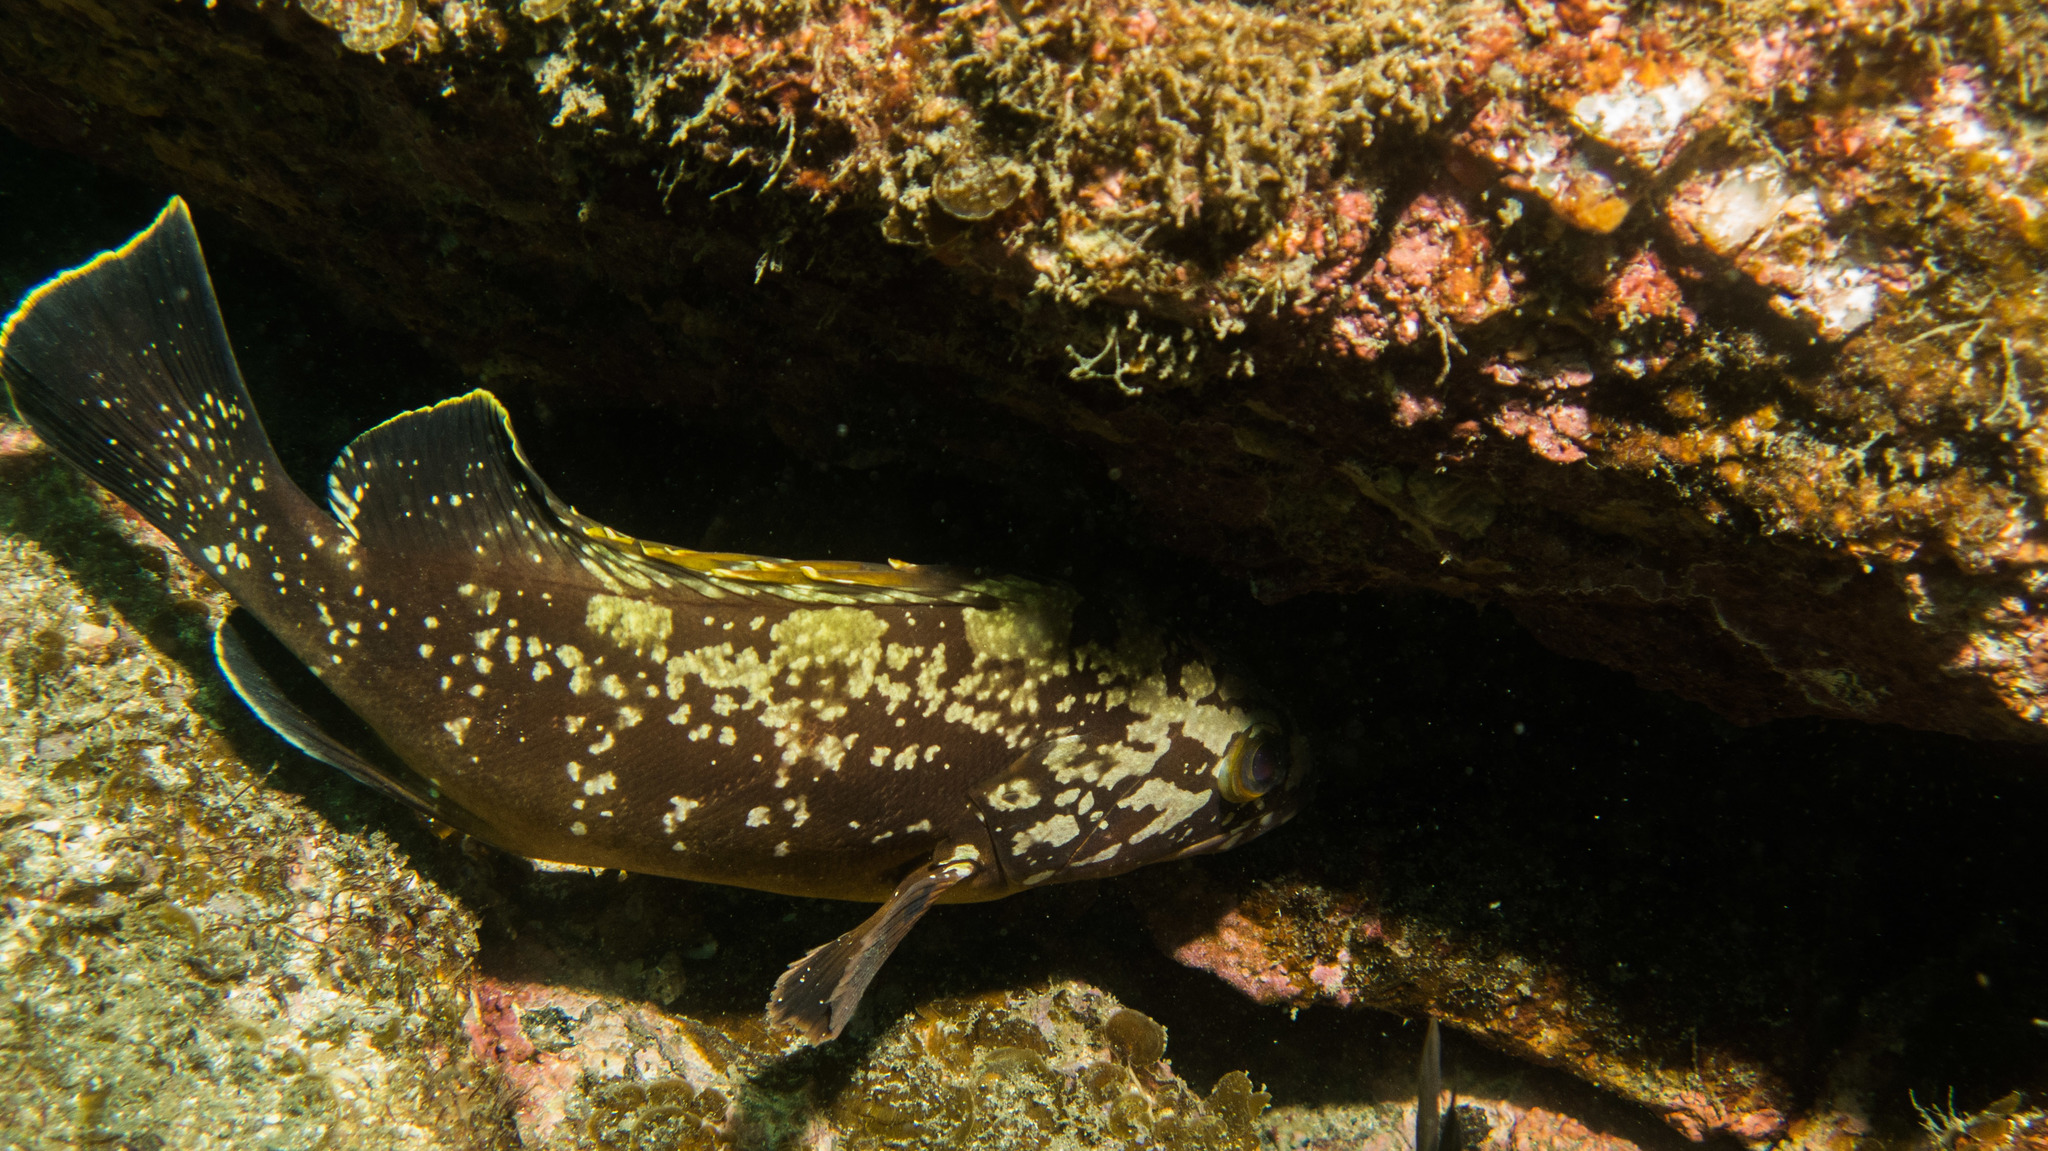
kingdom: Animalia
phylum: Chordata
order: Perciformes
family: Serranidae
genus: Epinephelus
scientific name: Epinephelus marginatus
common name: Dusky grouper
